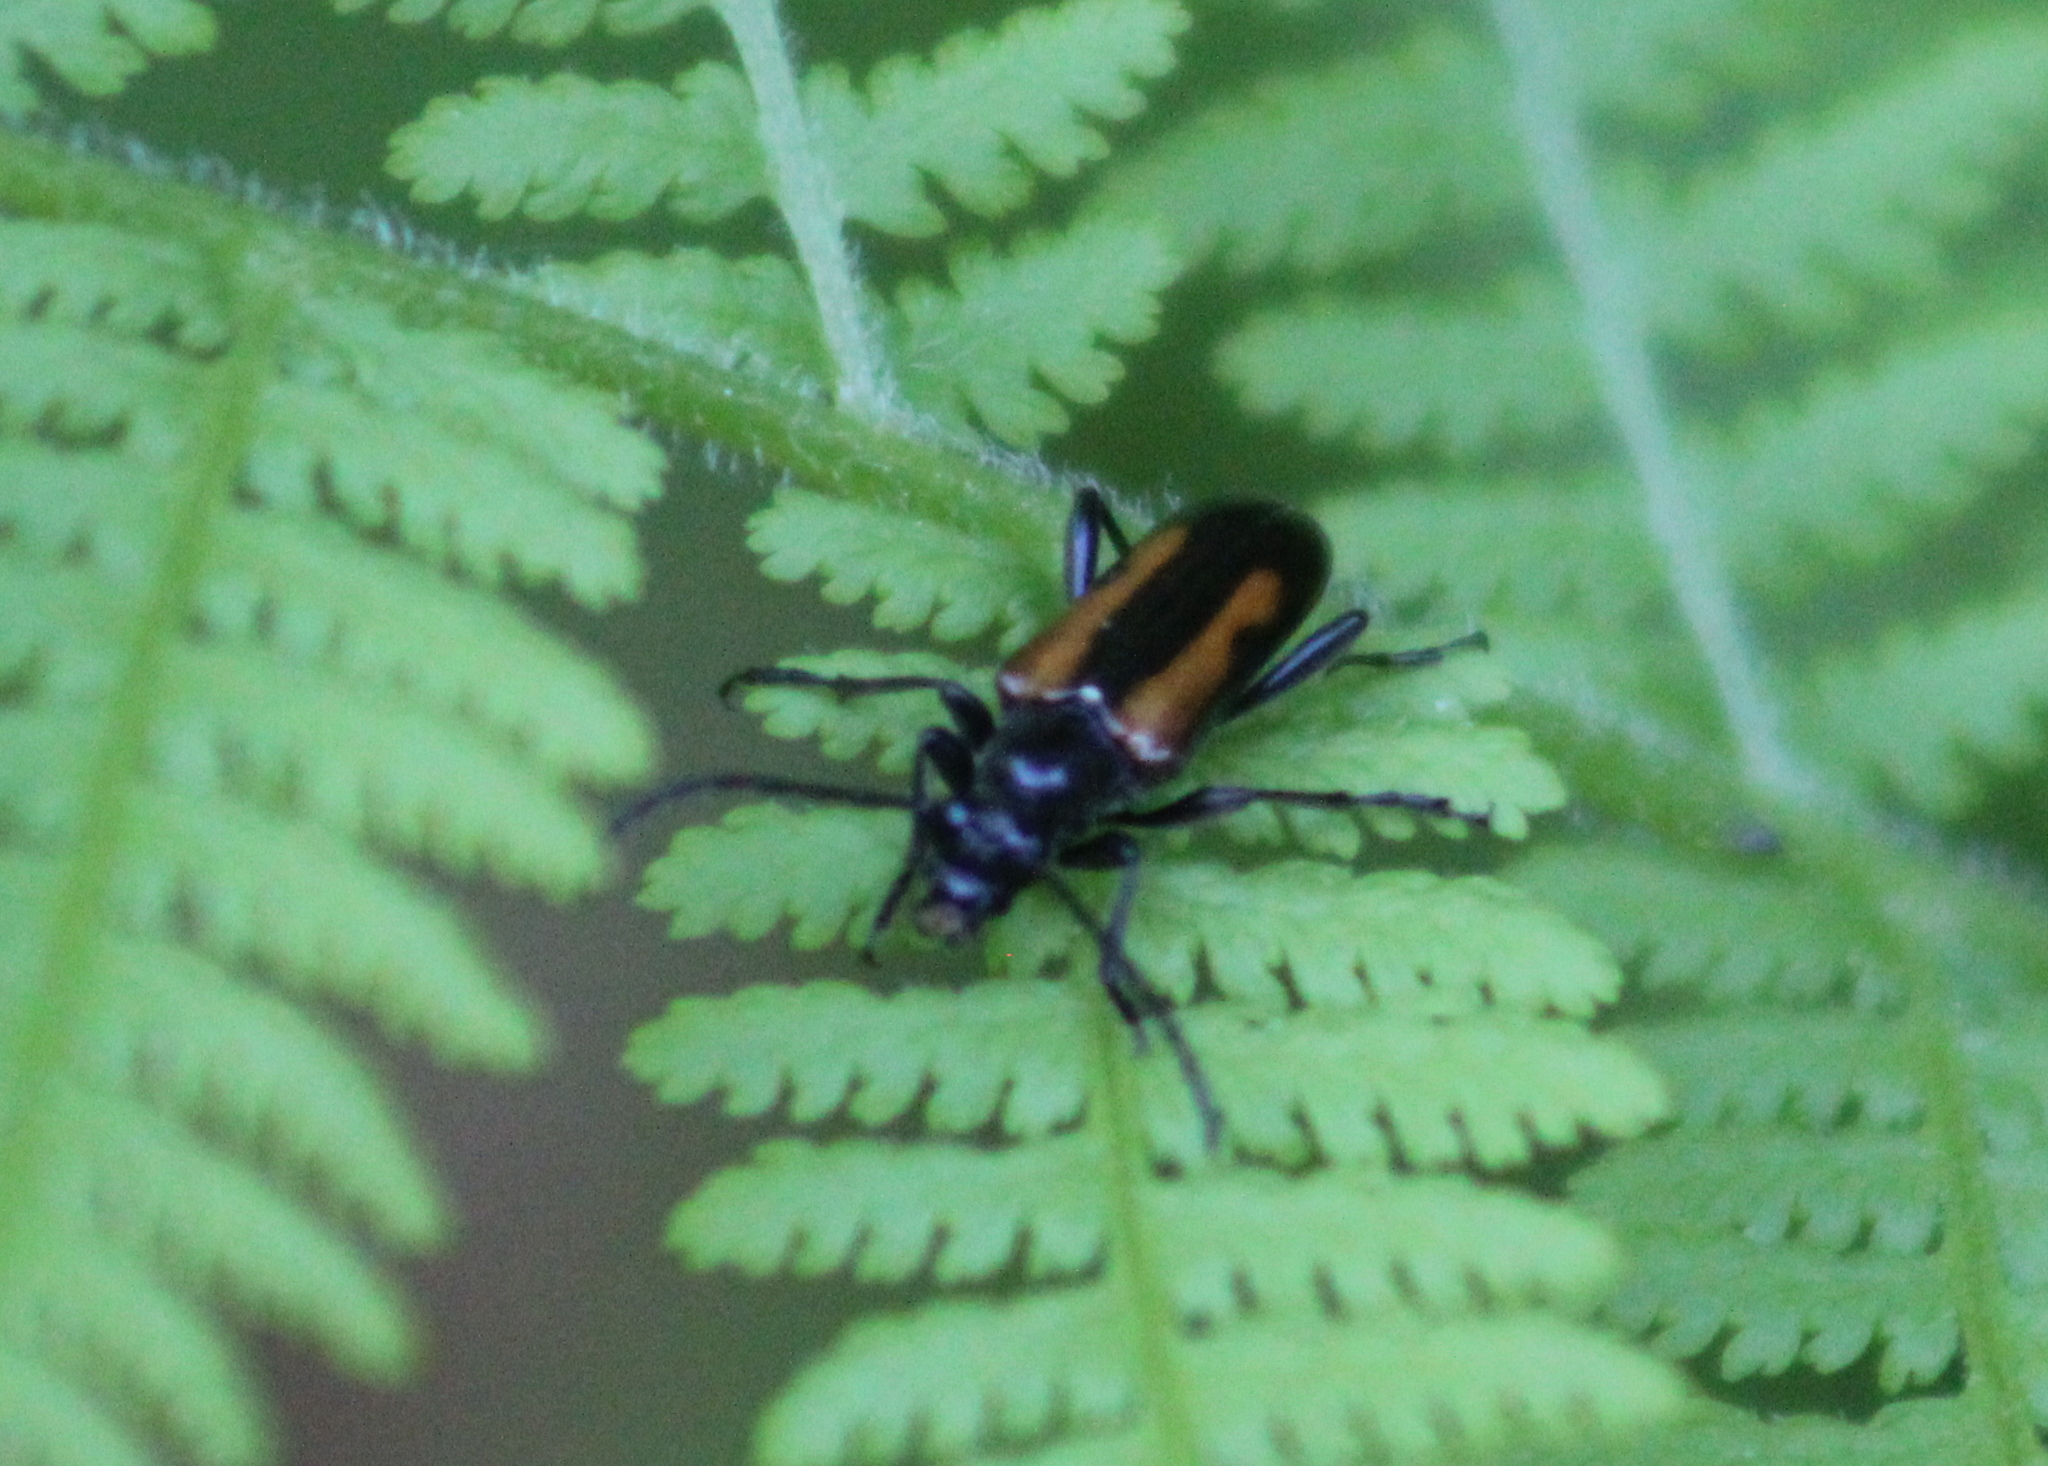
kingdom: Animalia
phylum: Arthropoda
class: Insecta
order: Coleoptera
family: Cerambycidae
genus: Strangalepta
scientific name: Strangalepta abbreviata
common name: Strangalepta flower longhorn beetle
